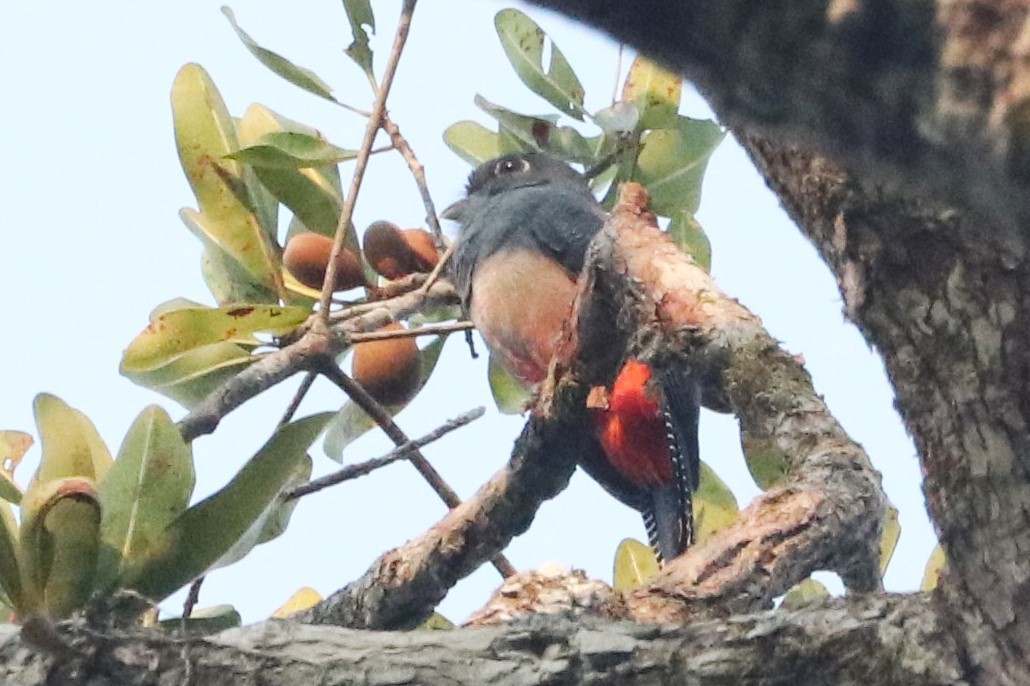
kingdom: Animalia
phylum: Chordata
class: Aves
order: Trogoniformes
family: Trogonidae
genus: Trogon
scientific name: Trogon curucui
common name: Blue-crowned trogon
